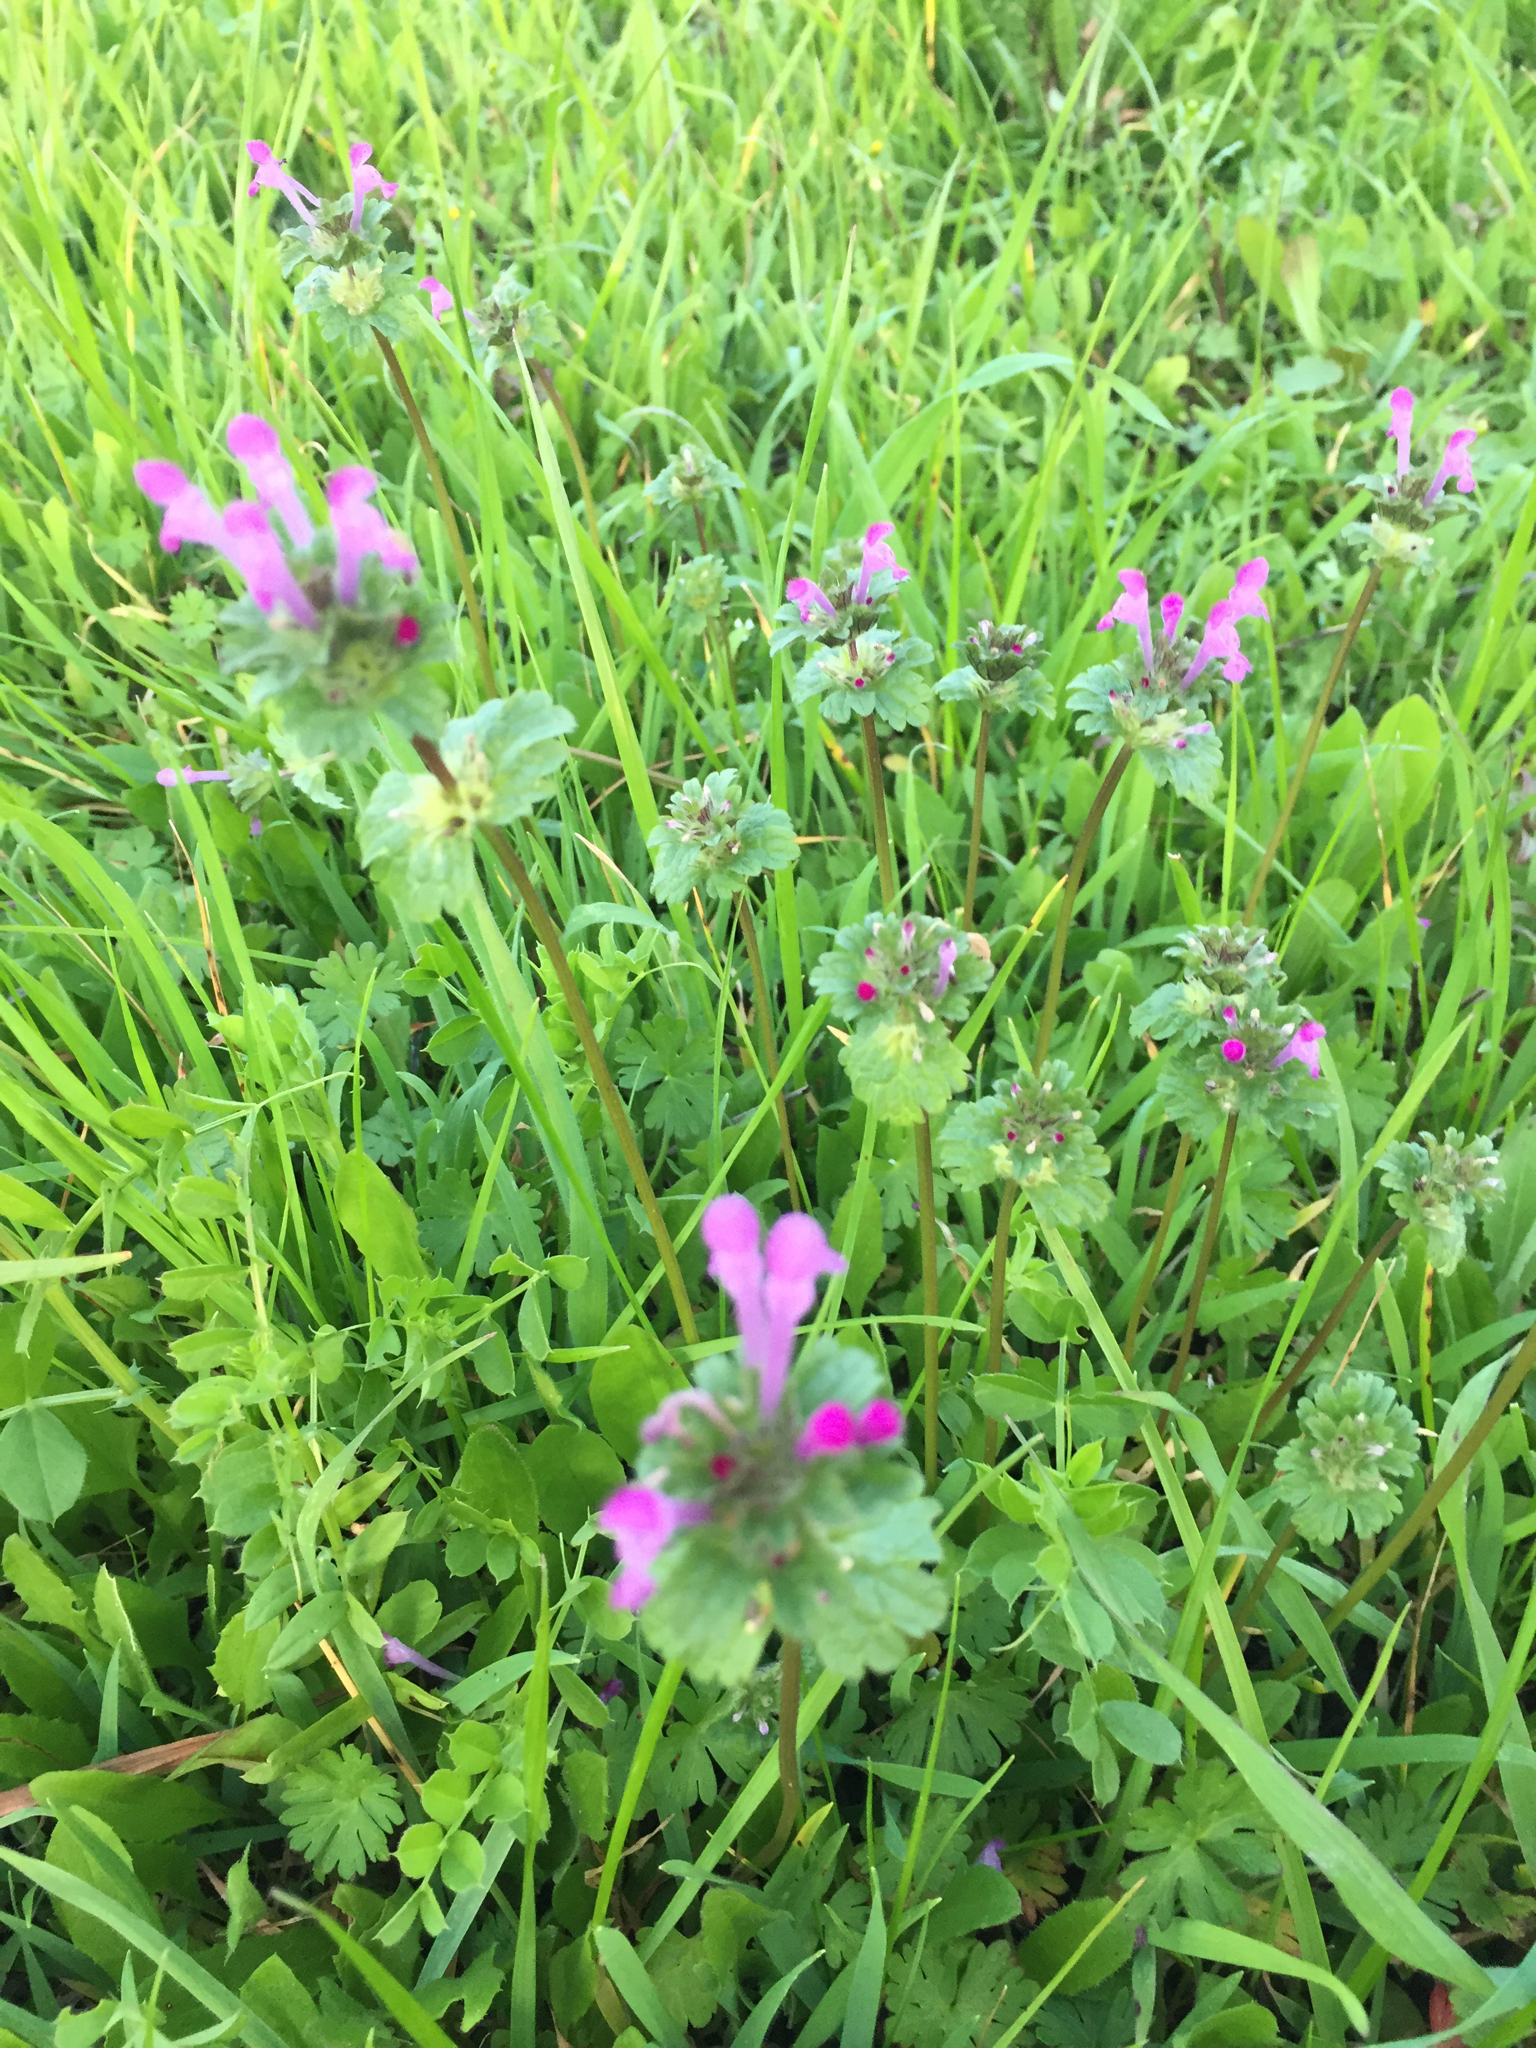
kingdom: Plantae
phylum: Tracheophyta
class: Magnoliopsida
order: Lamiales
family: Lamiaceae
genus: Lamium
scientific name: Lamium amplexicaule
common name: Henbit dead-nettle
